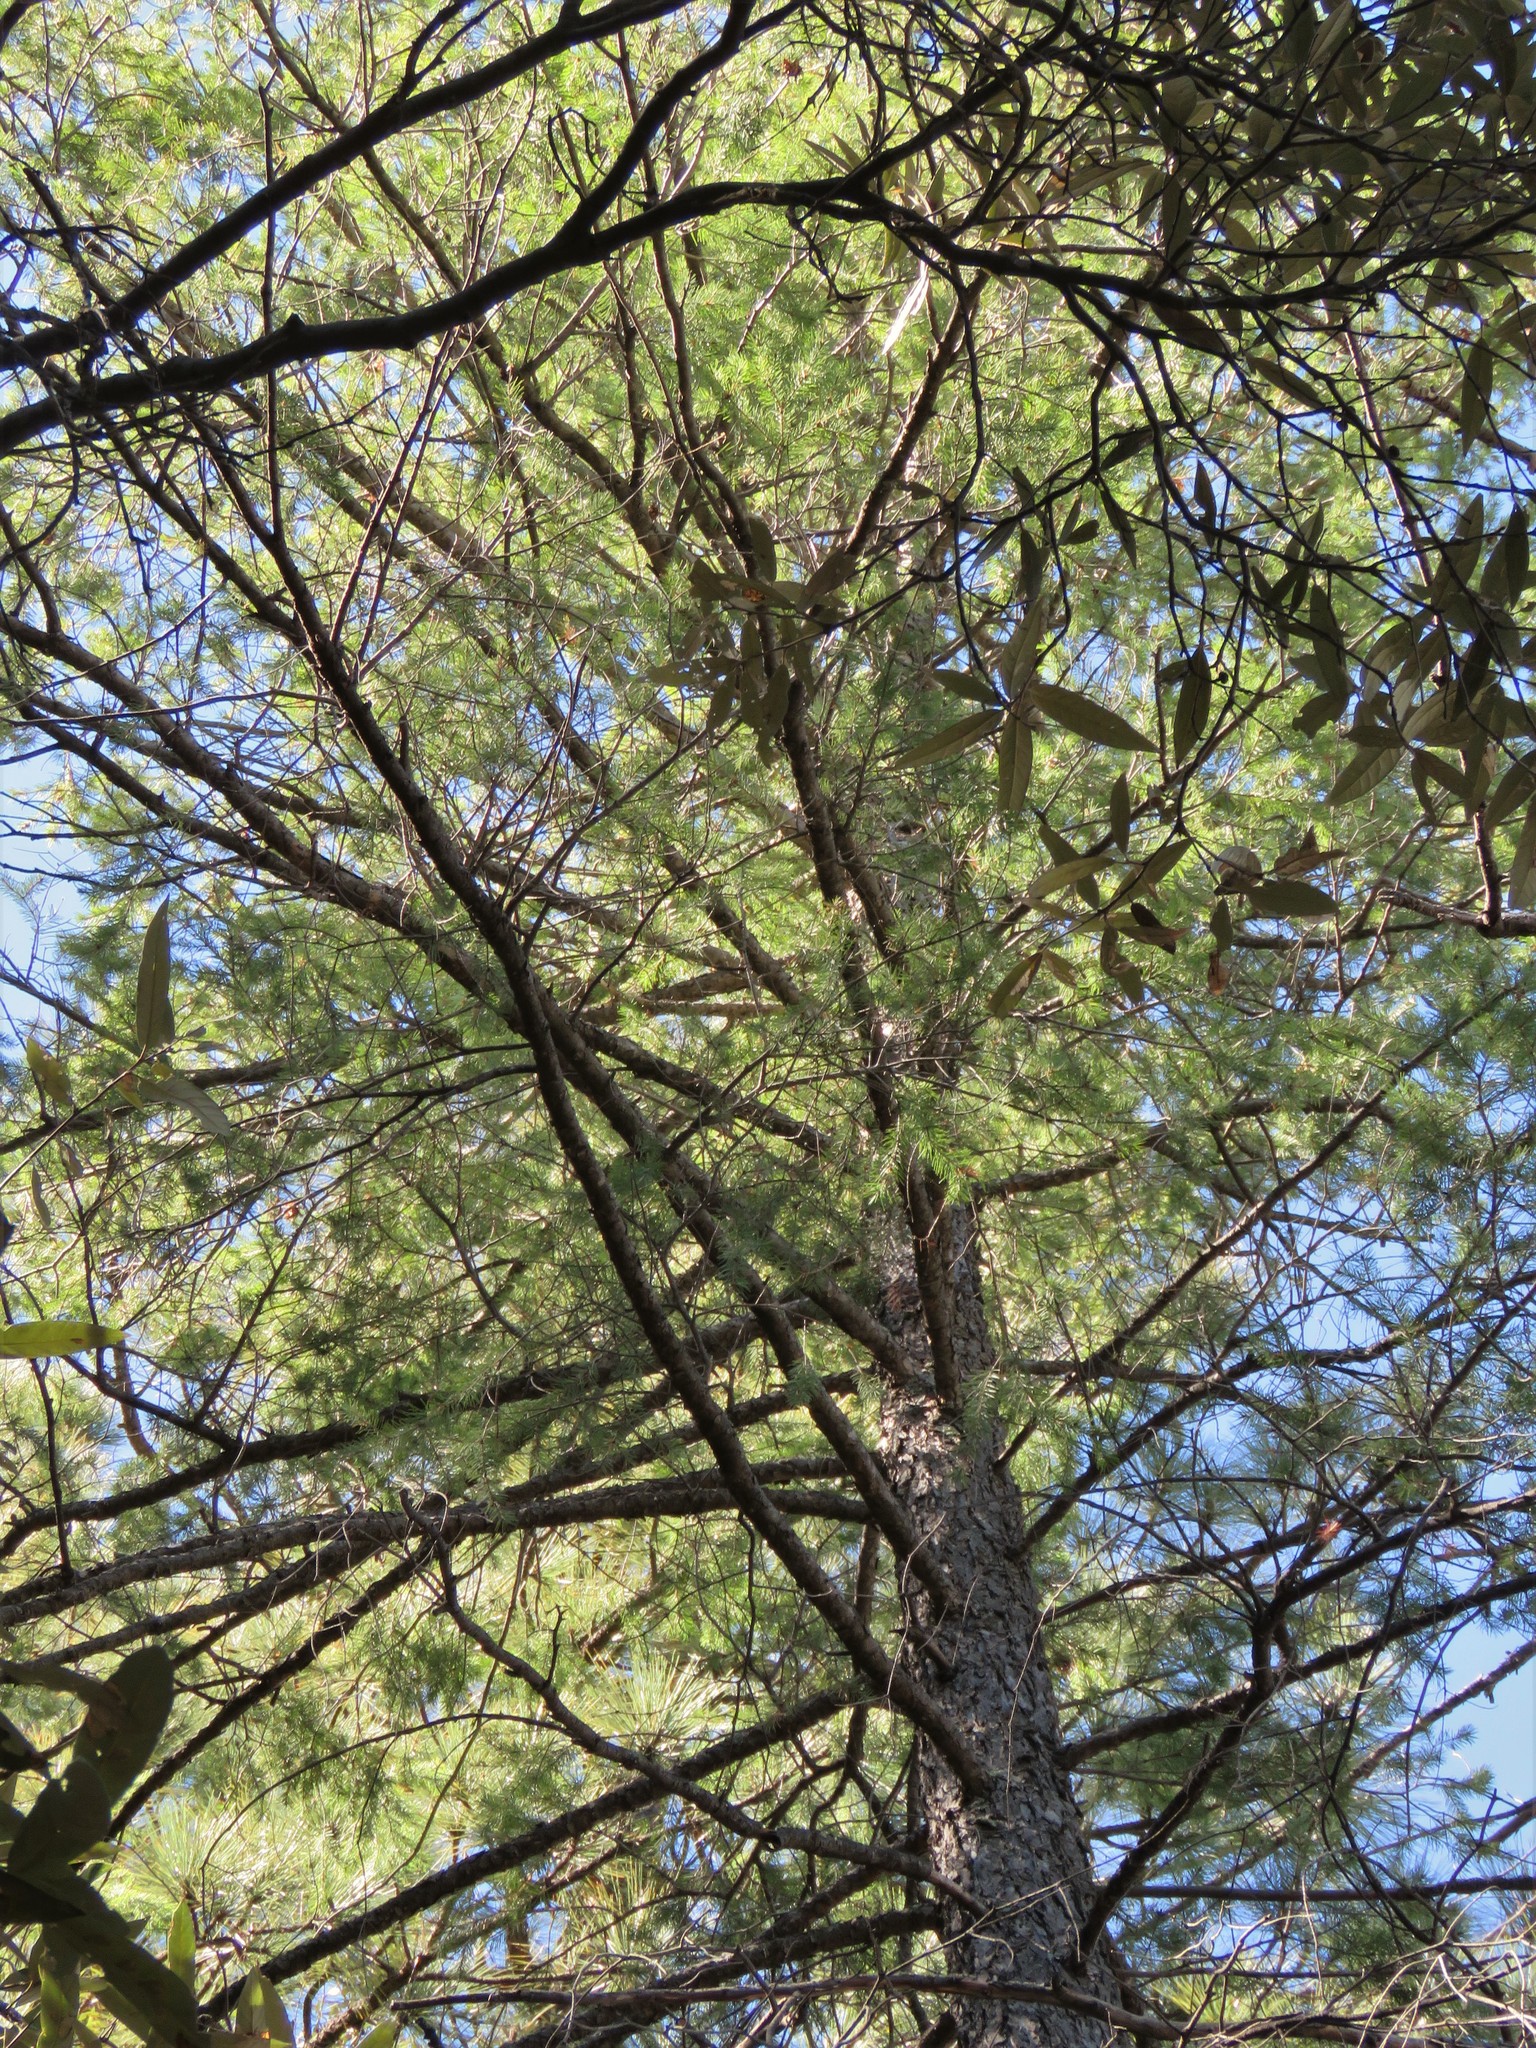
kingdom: Plantae
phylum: Tracheophyta
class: Pinopsida
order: Pinales
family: Pinaceae
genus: Pseudotsuga
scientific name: Pseudotsuga menziesii
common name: Douglas fir
